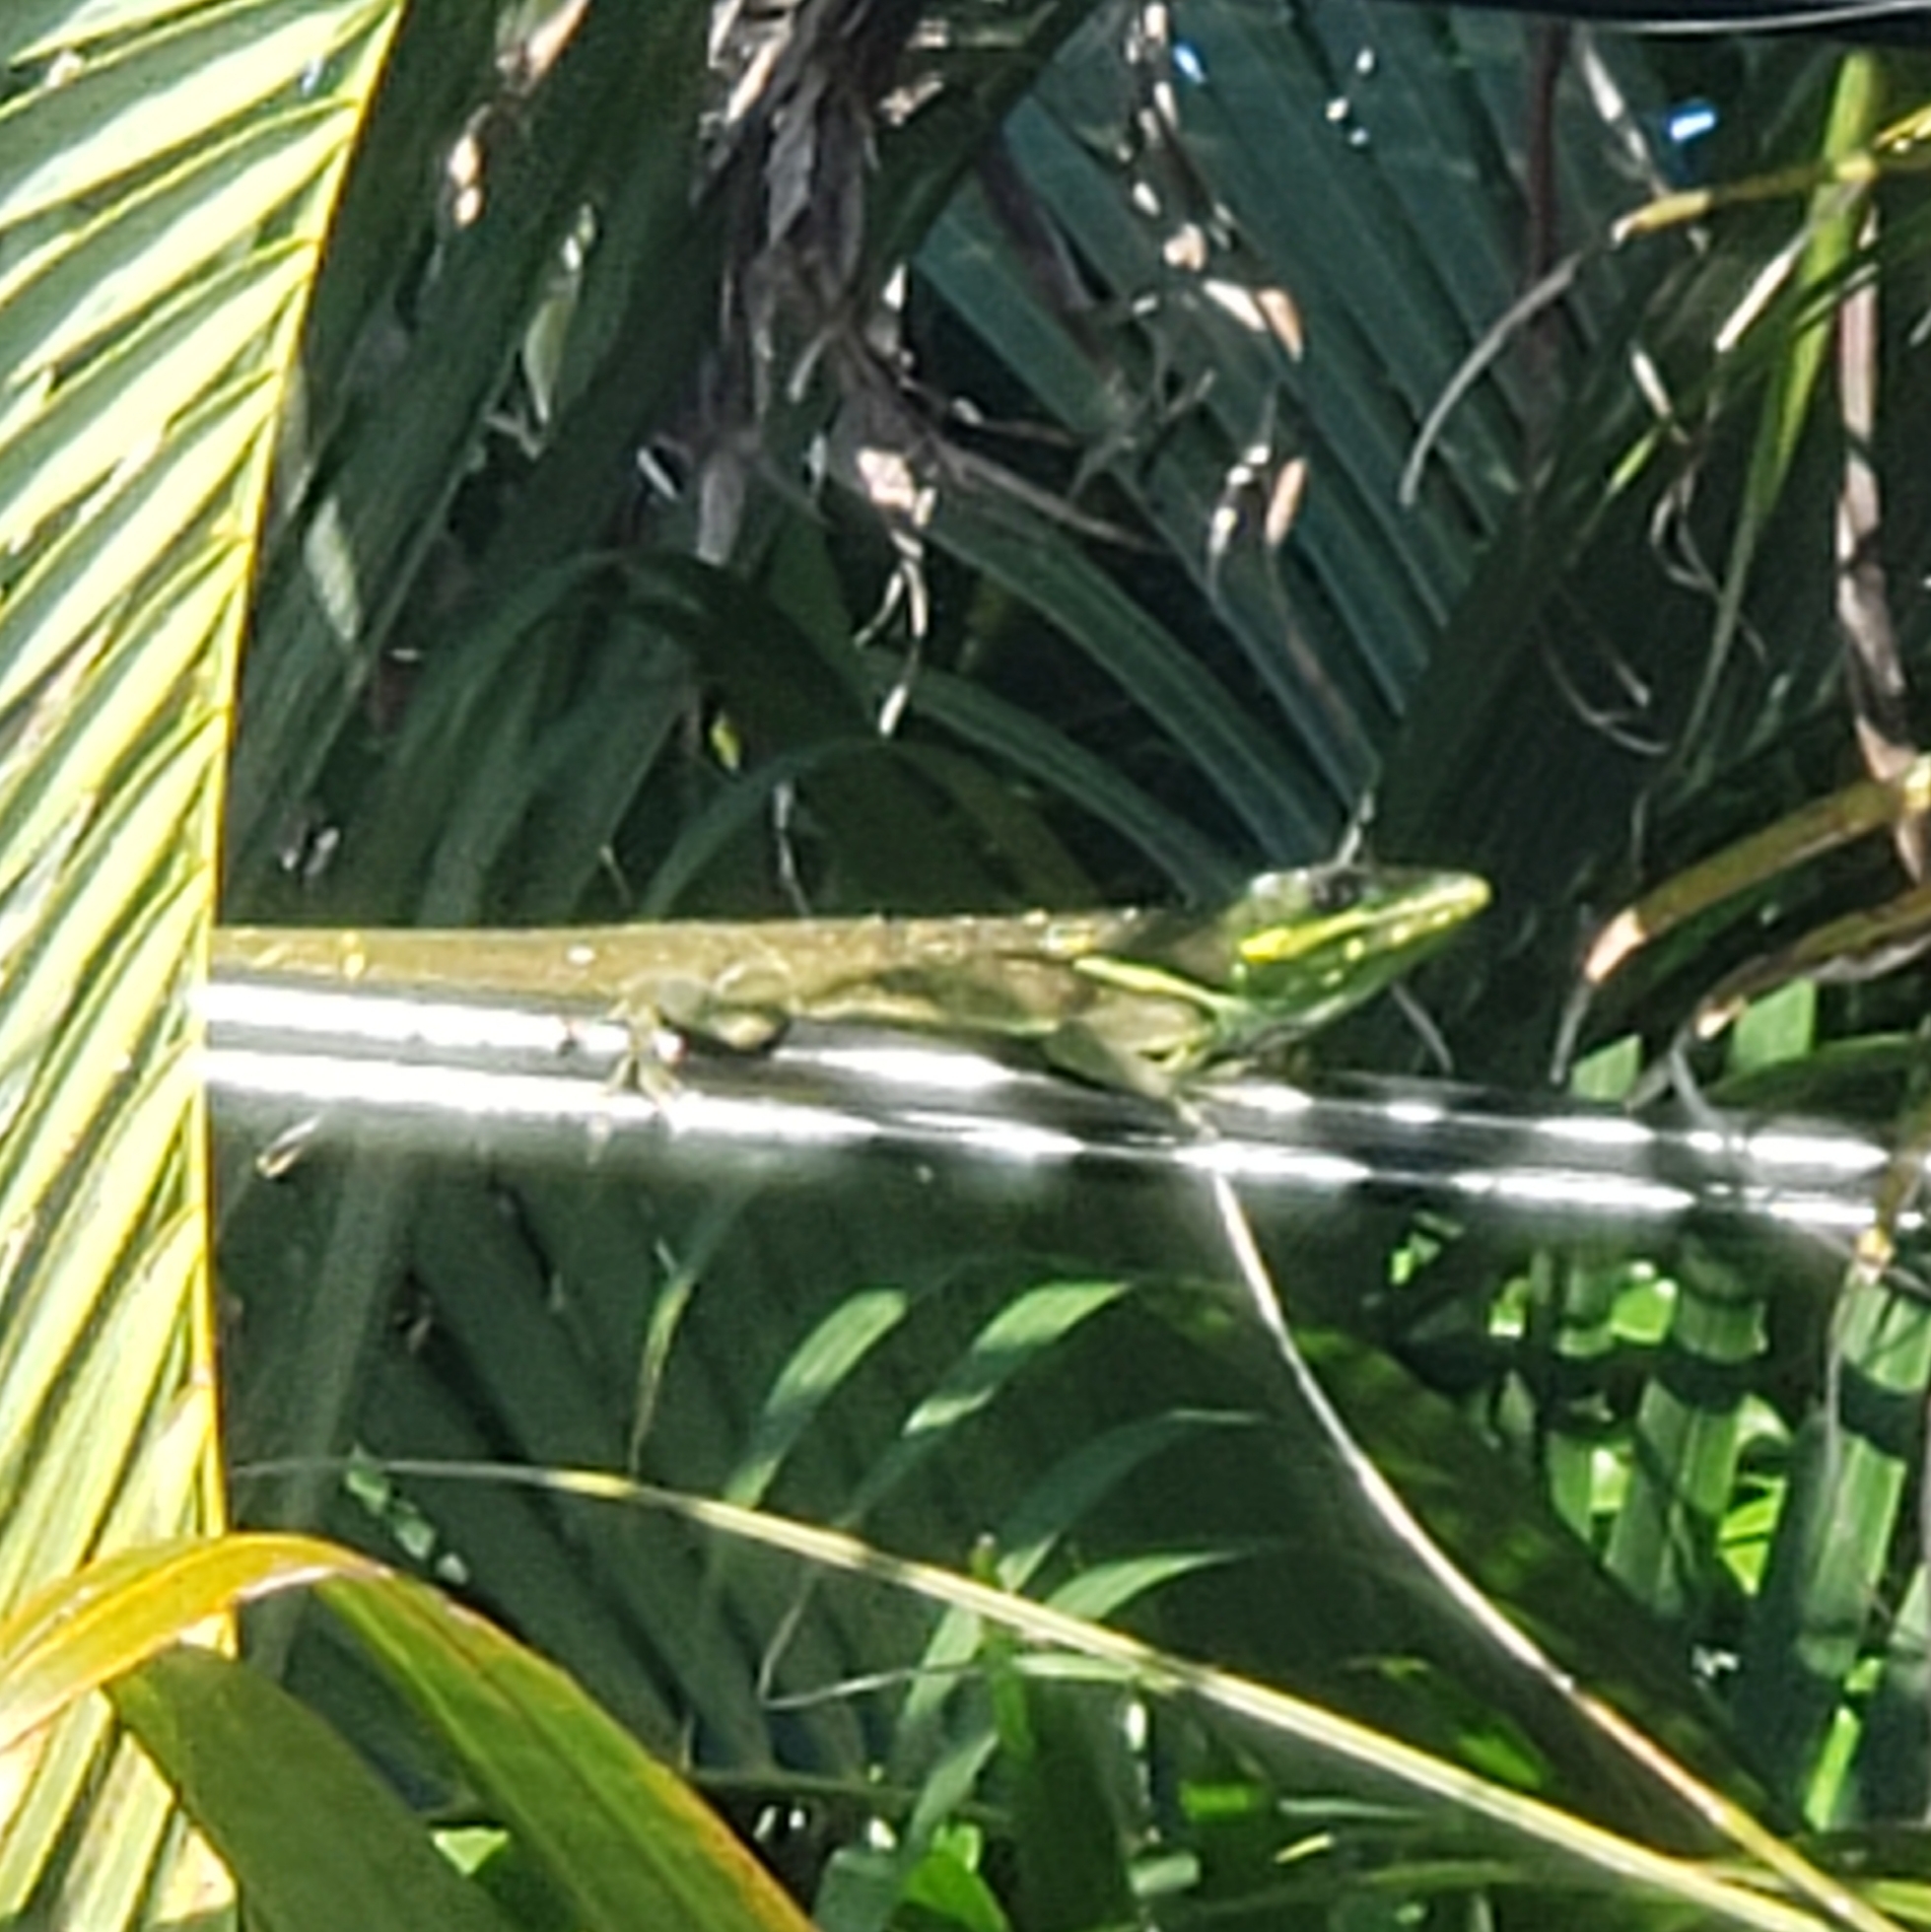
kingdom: Animalia
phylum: Chordata
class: Squamata
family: Dactyloidae
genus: Anolis
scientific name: Anolis equestris
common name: Knight anole
